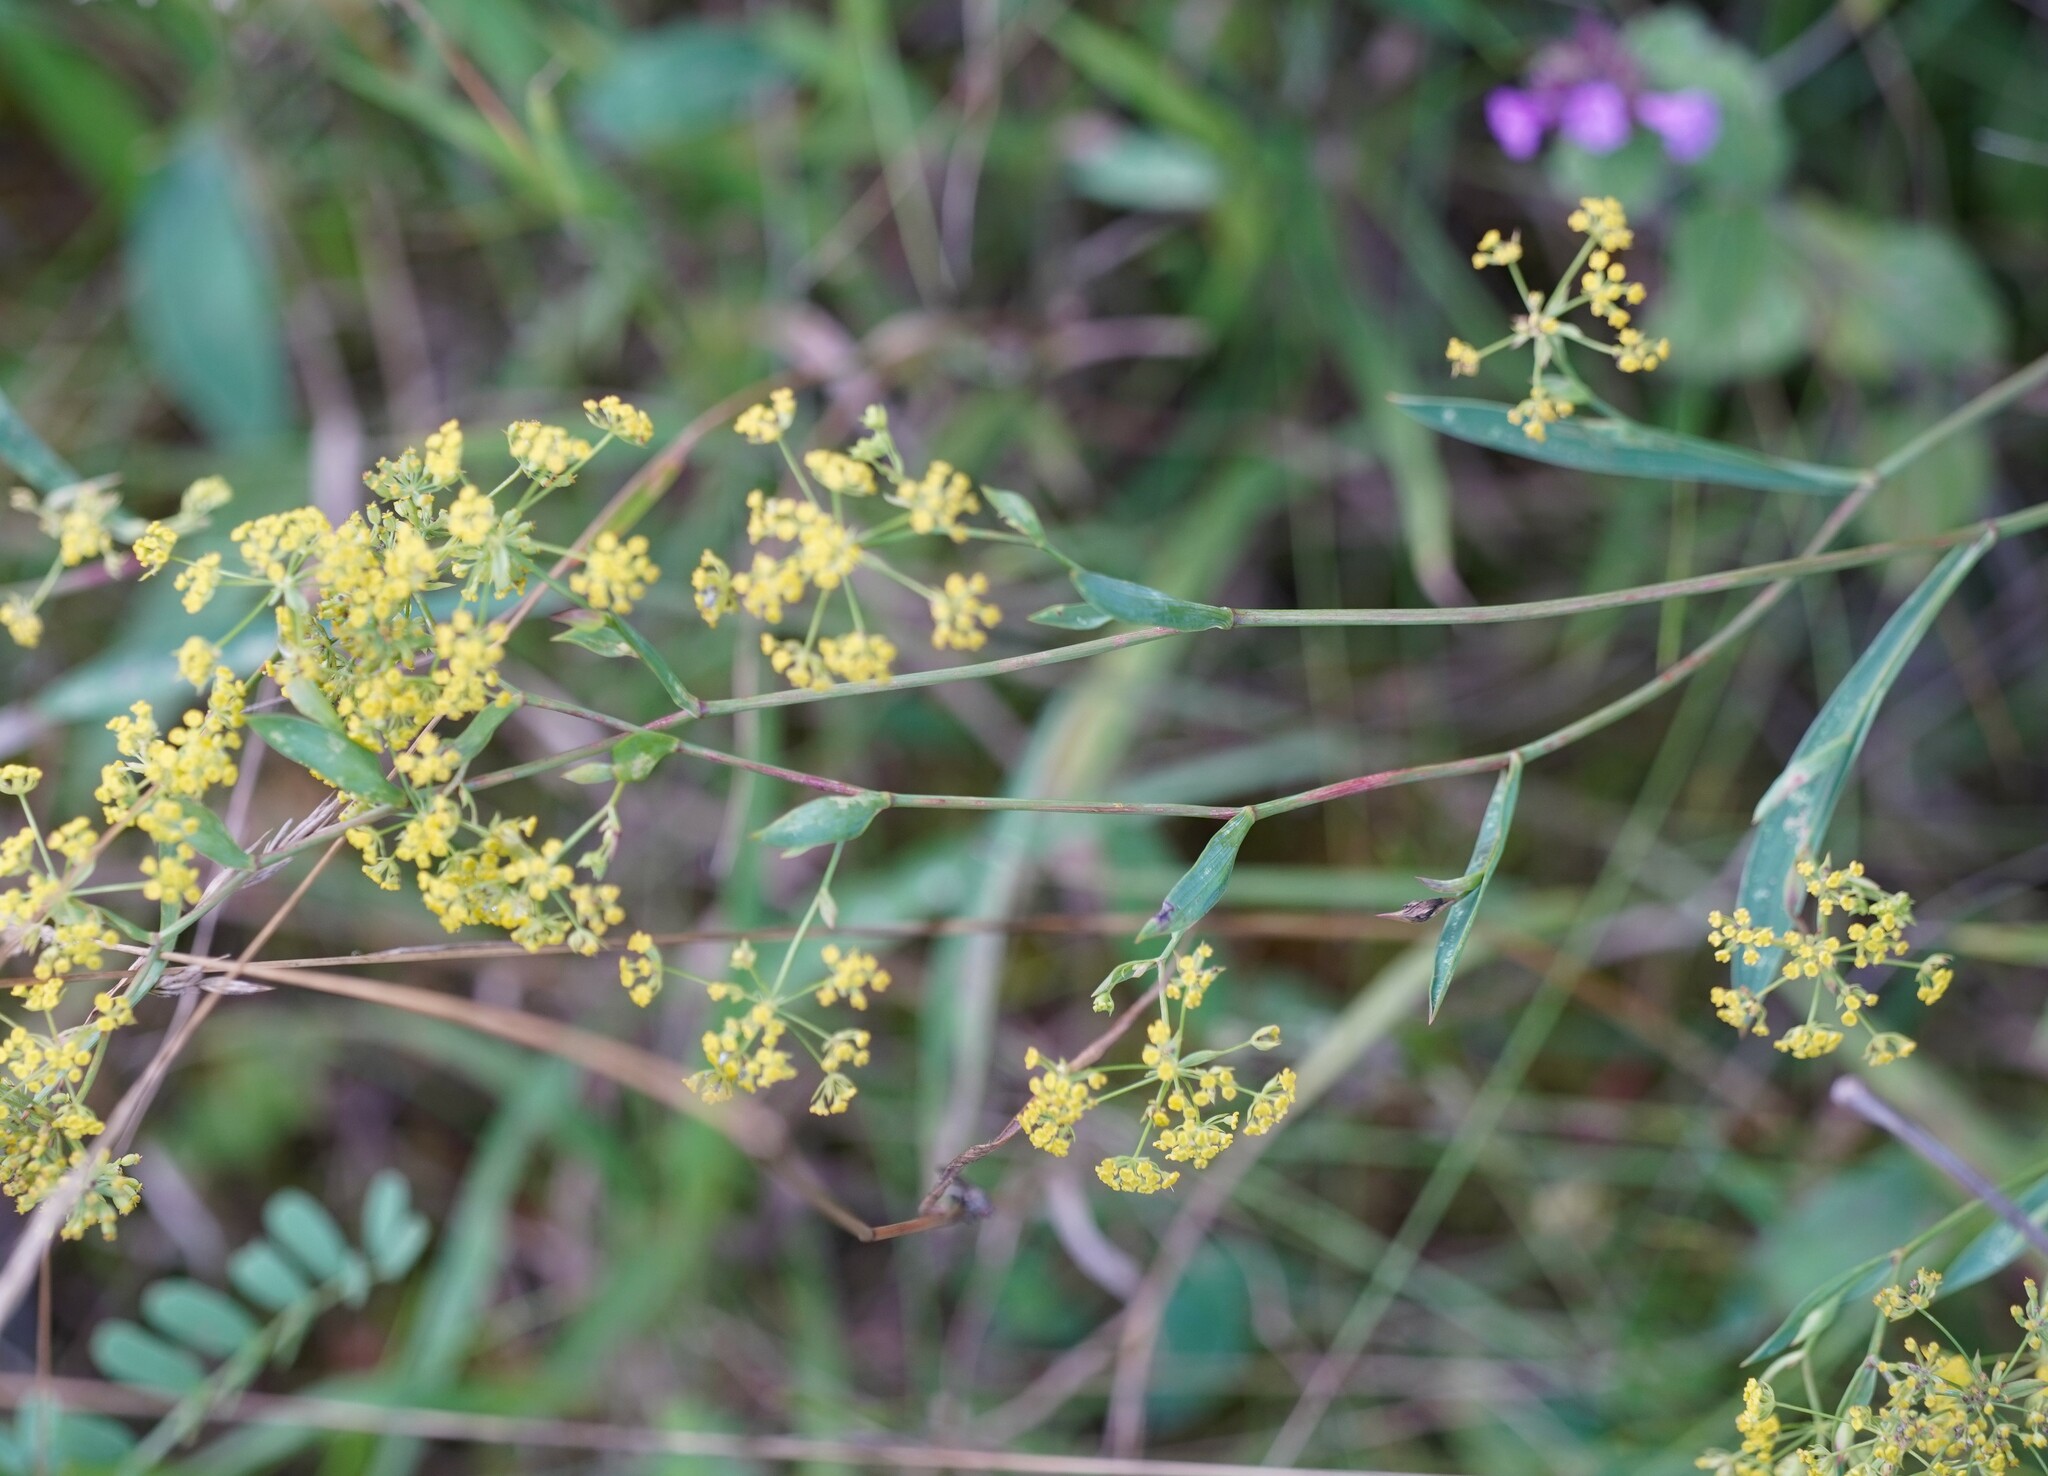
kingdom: Plantae
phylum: Tracheophyta
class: Magnoliopsida
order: Apiales
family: Apiaceae
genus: Bupleurum
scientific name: Bupleurum falcatum
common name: Sickle-leaved hare's-ear
